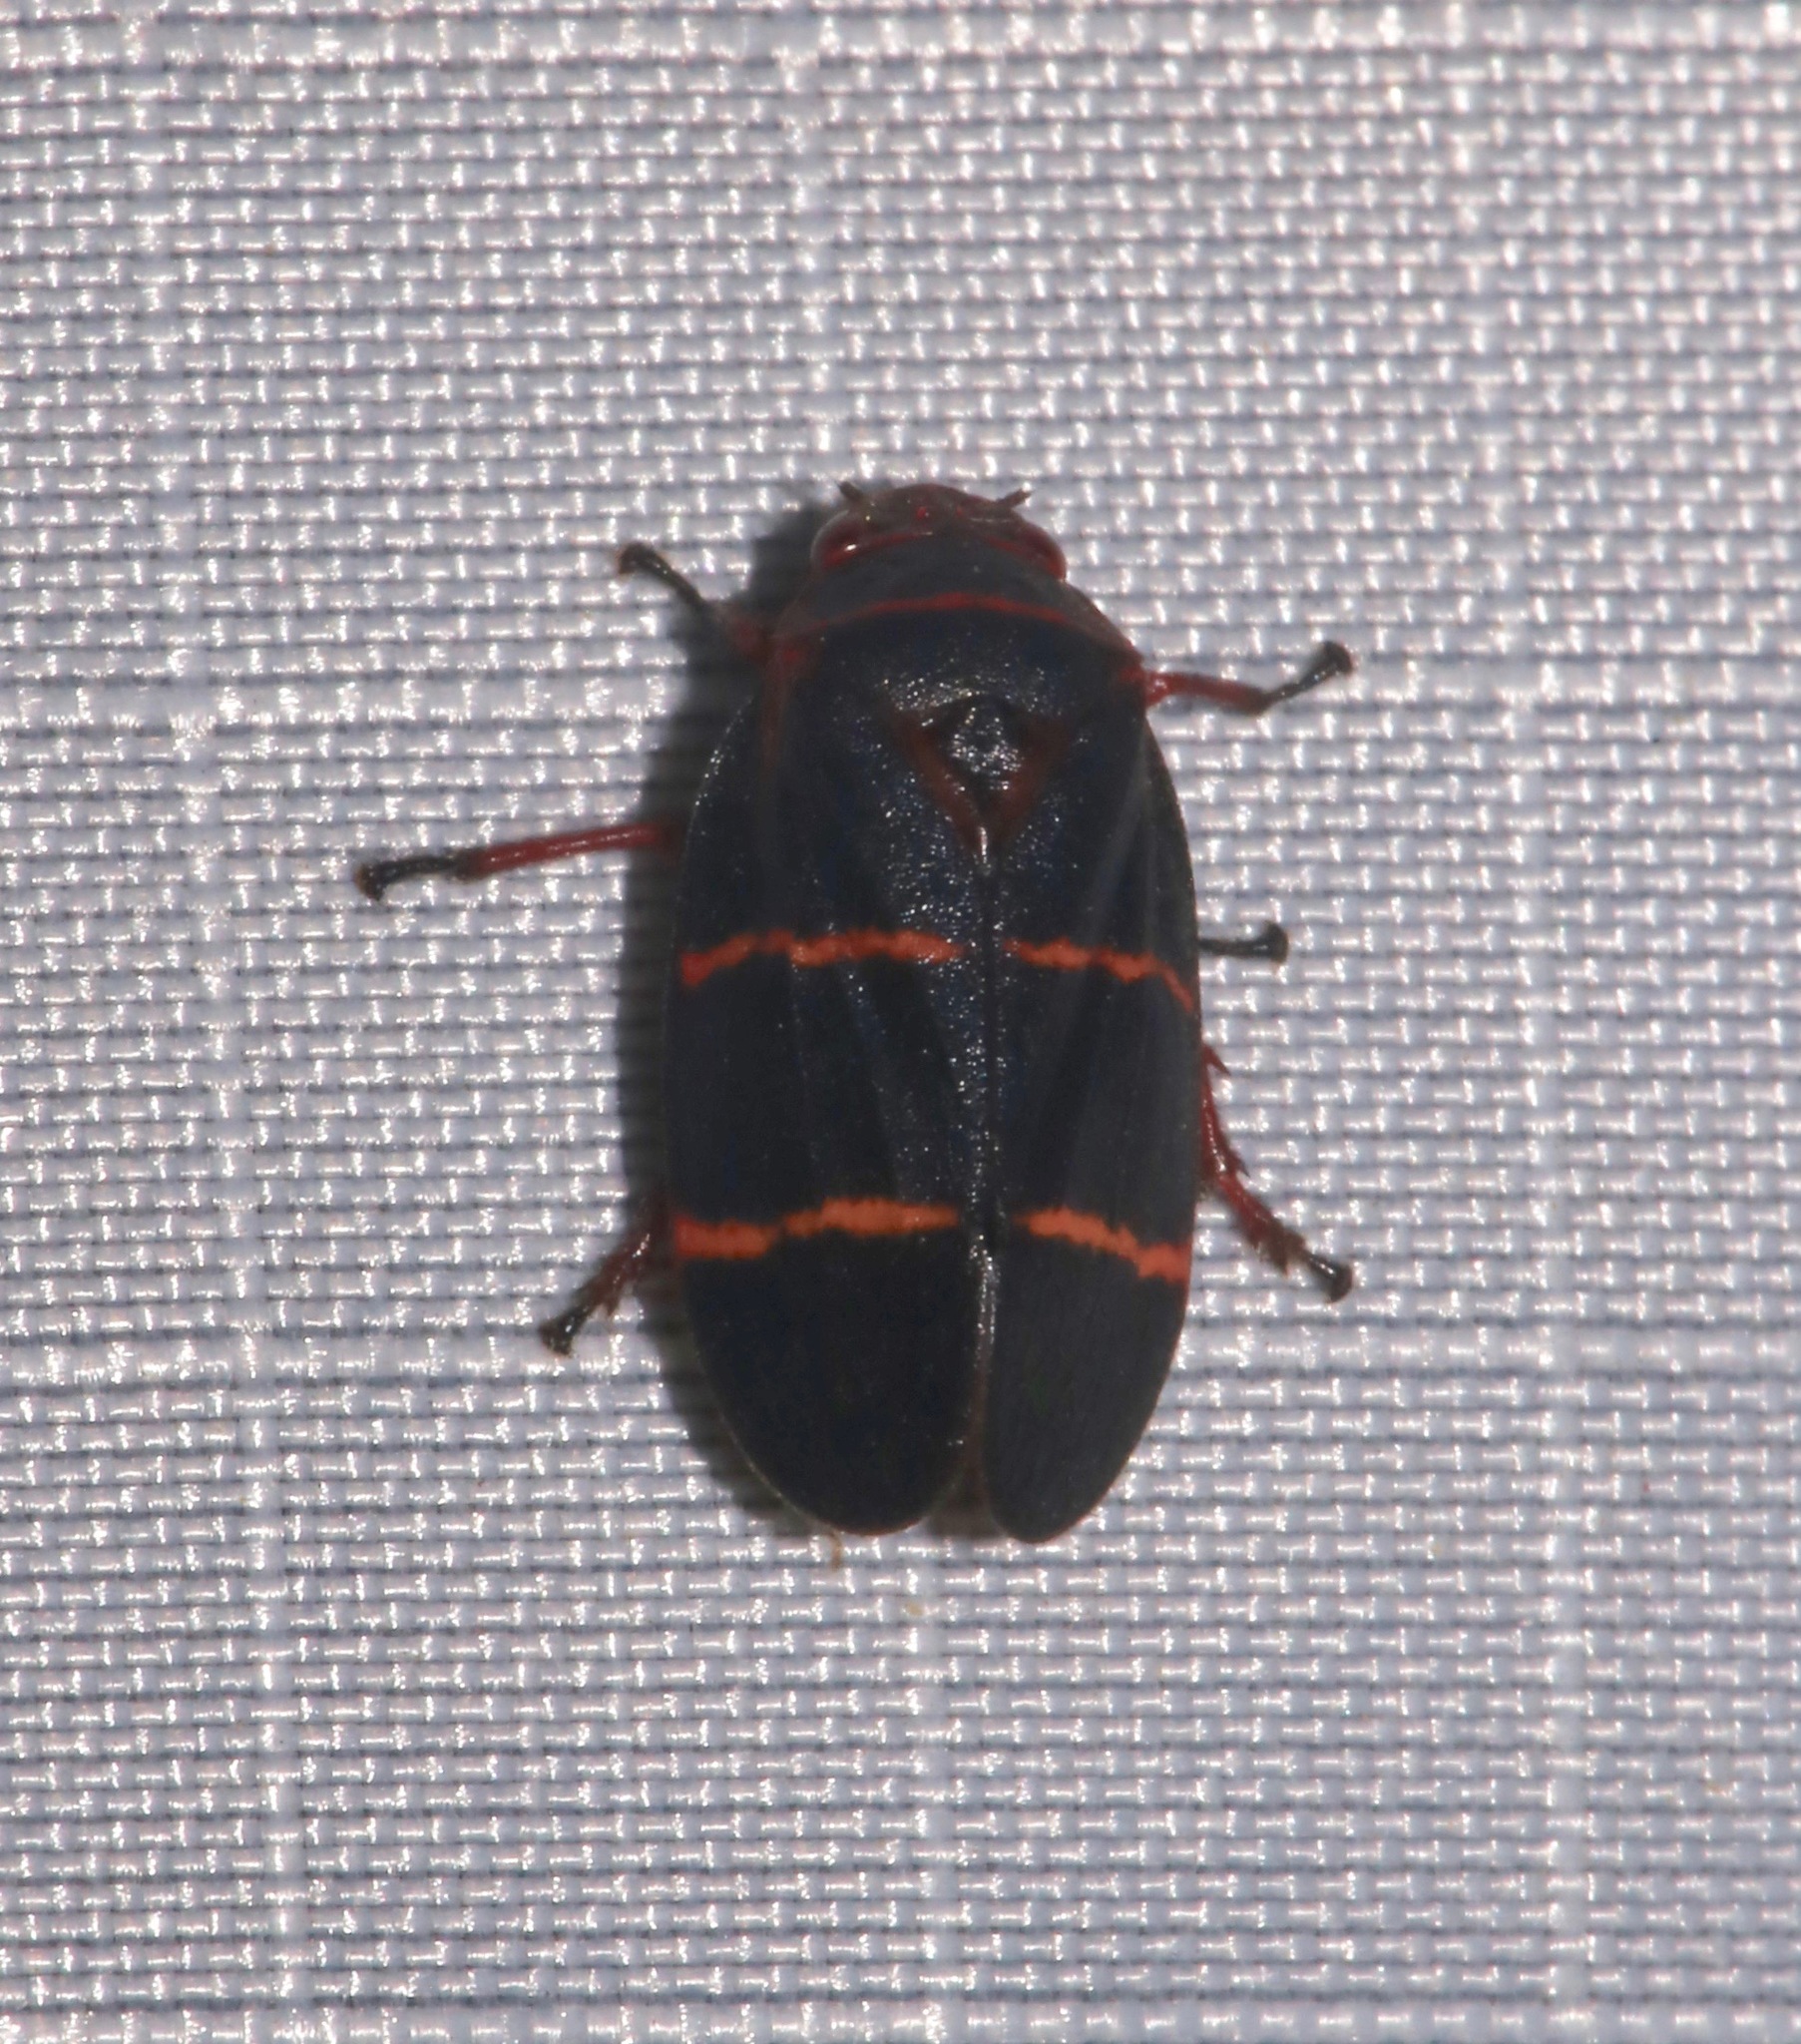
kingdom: Animalia
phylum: Arthropoda
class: Insecta
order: Hemiptera
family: Cercopidae
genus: Prosapia
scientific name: Prosapia bicincta
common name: Twolined spittlebug
